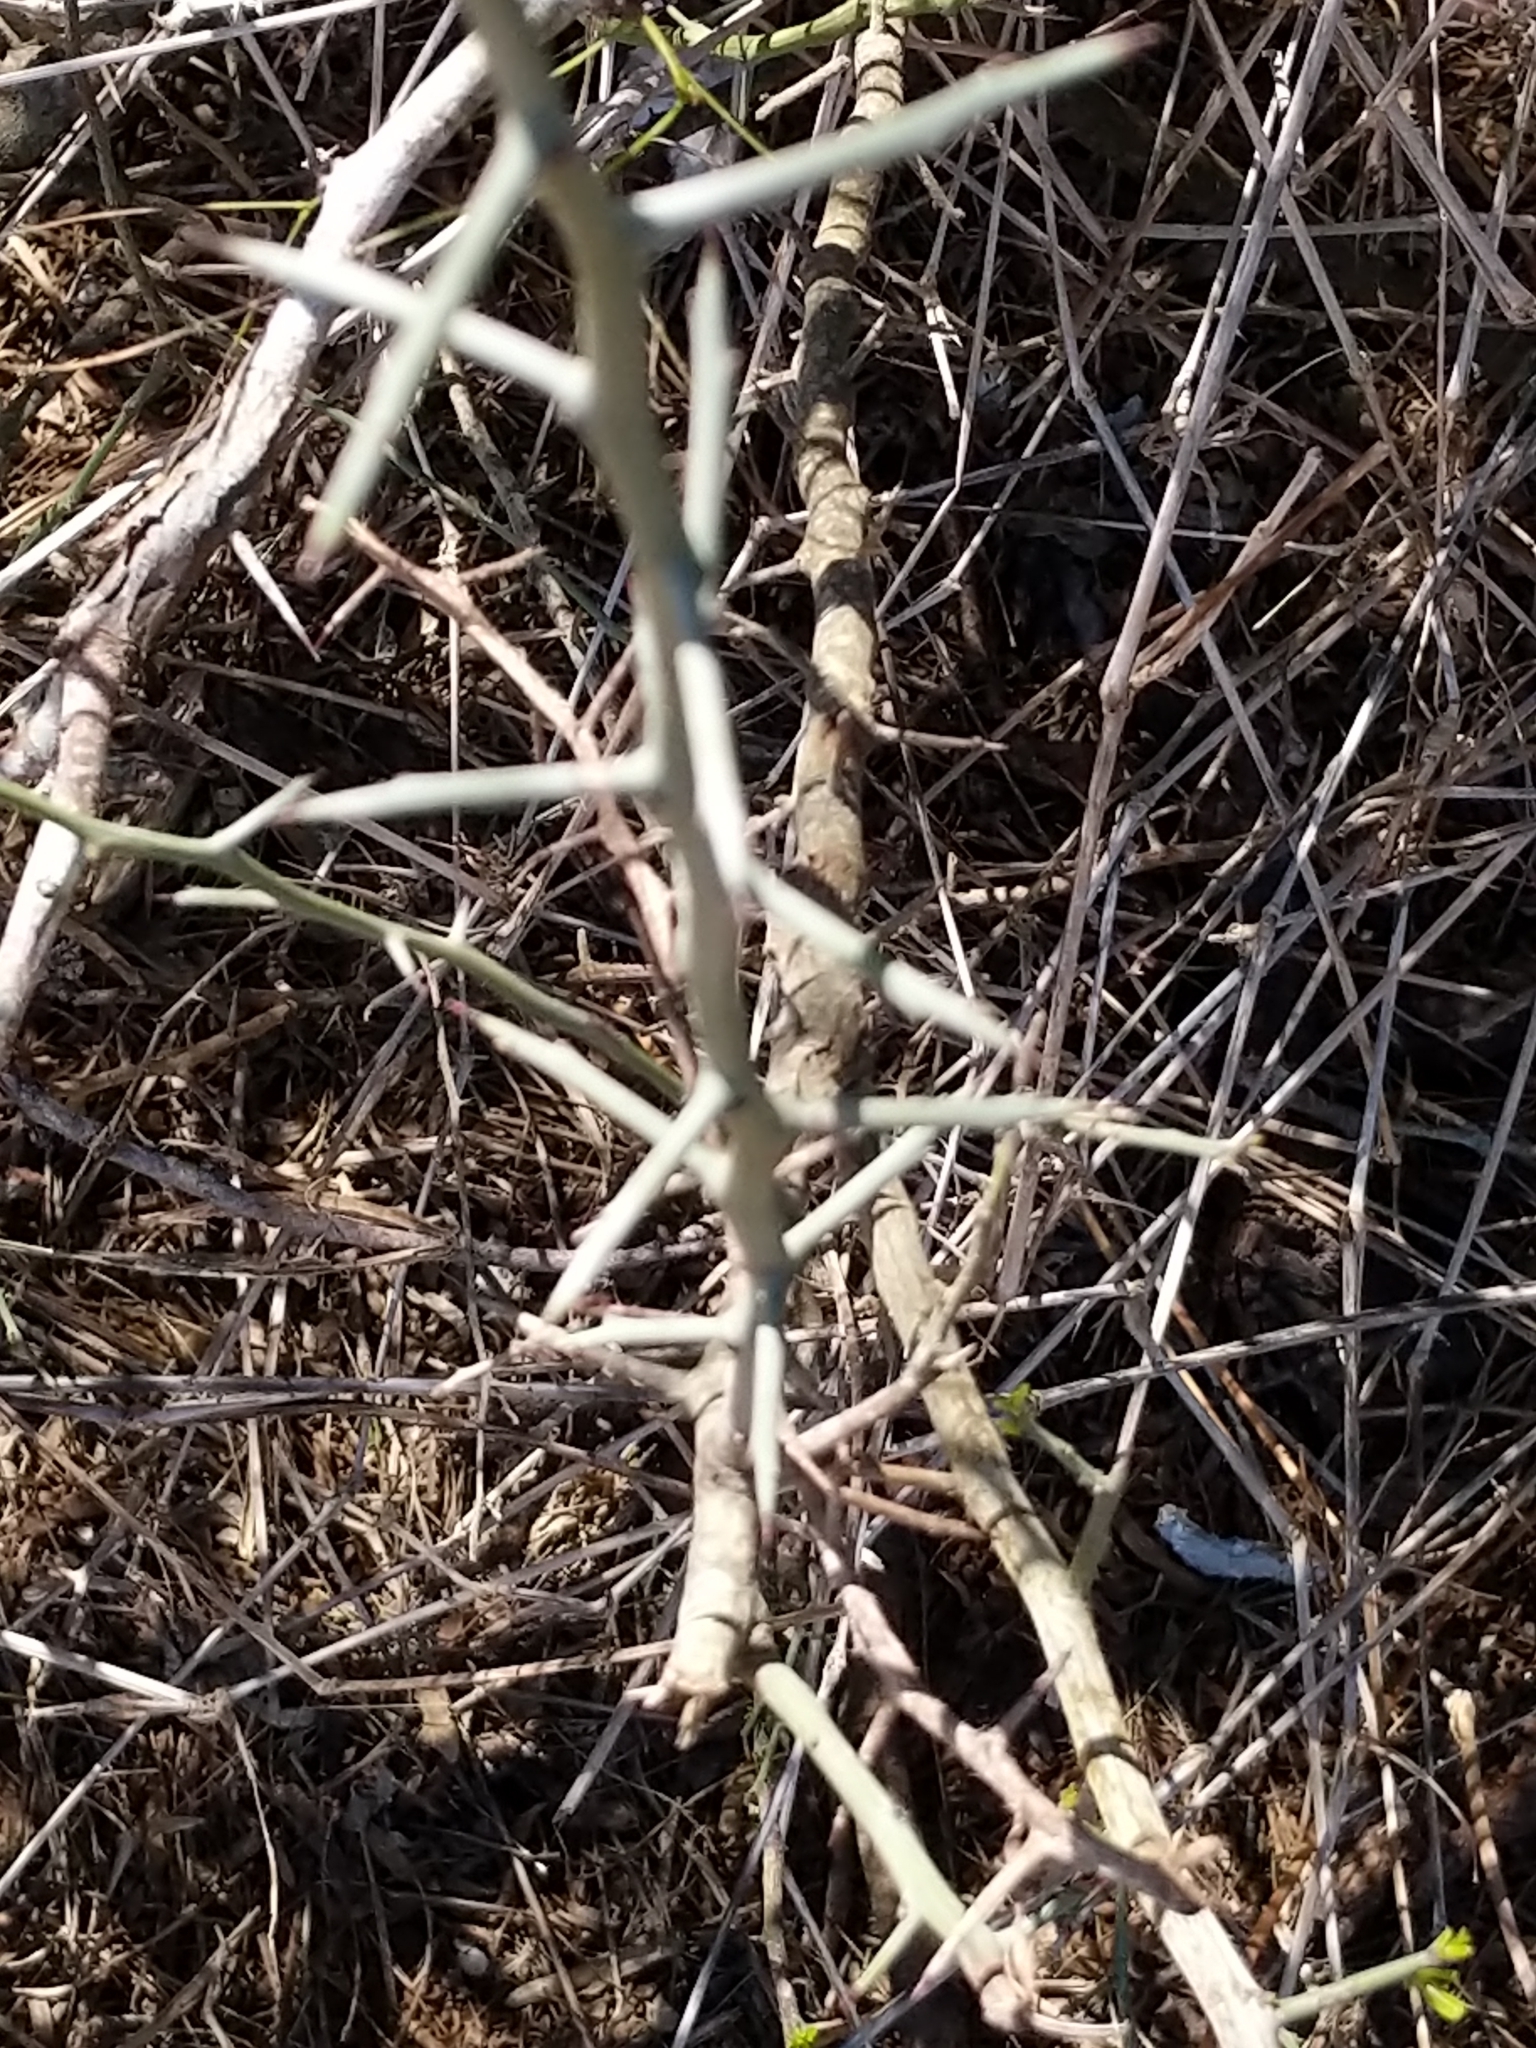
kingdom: Plantae
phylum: Tracheophyta
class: Magnoliopsida
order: Rosales
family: Rhamnaceae
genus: Sarcomphalus
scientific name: Sarcomphalus obtusifolius
